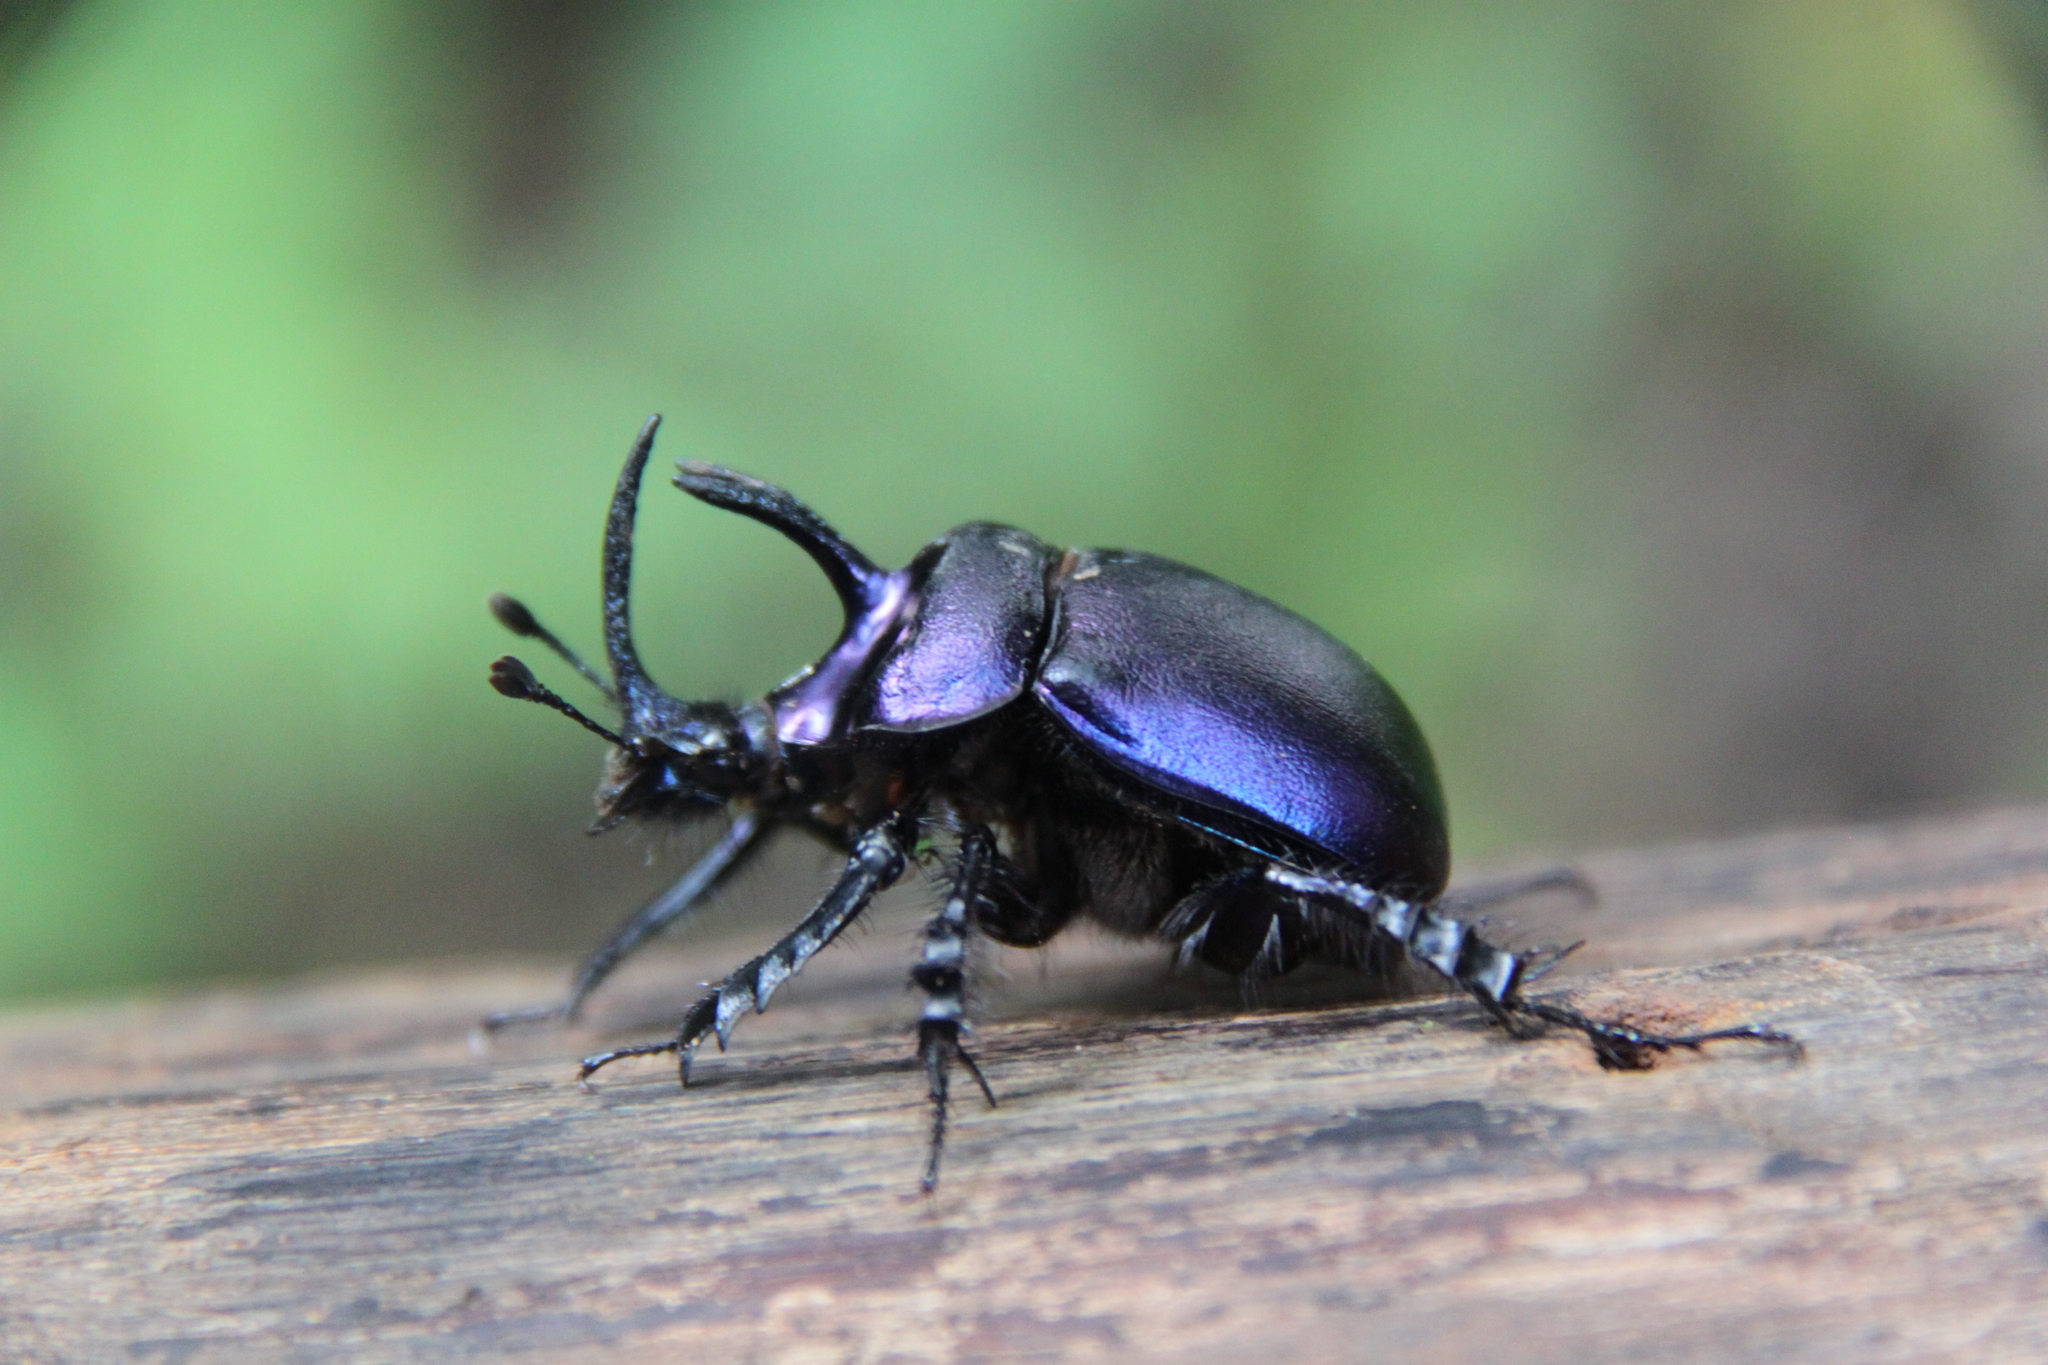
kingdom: Animalia
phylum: Arthropoda
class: Insecta
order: Coleoptera
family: Geotrupidae
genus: Enoplotrupes
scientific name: Enoplotrupes sharpi
